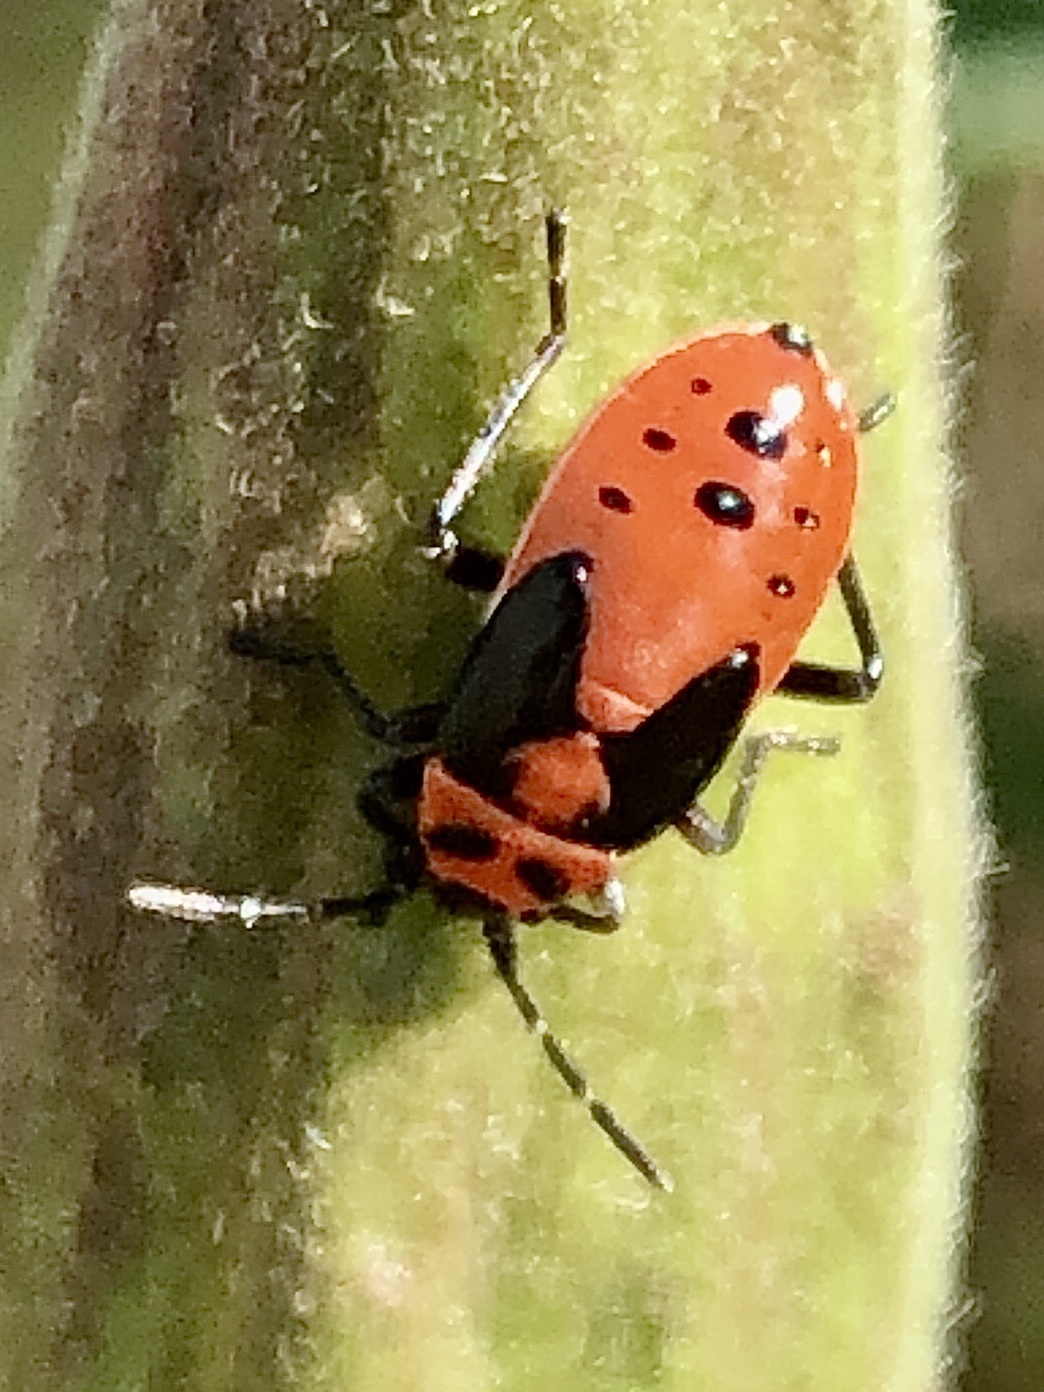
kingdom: Animalia
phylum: Arthropoda
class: Insecta
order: Hemiptera
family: Lygaeidae
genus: Lygaeus
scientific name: Lygaeus kalmii
